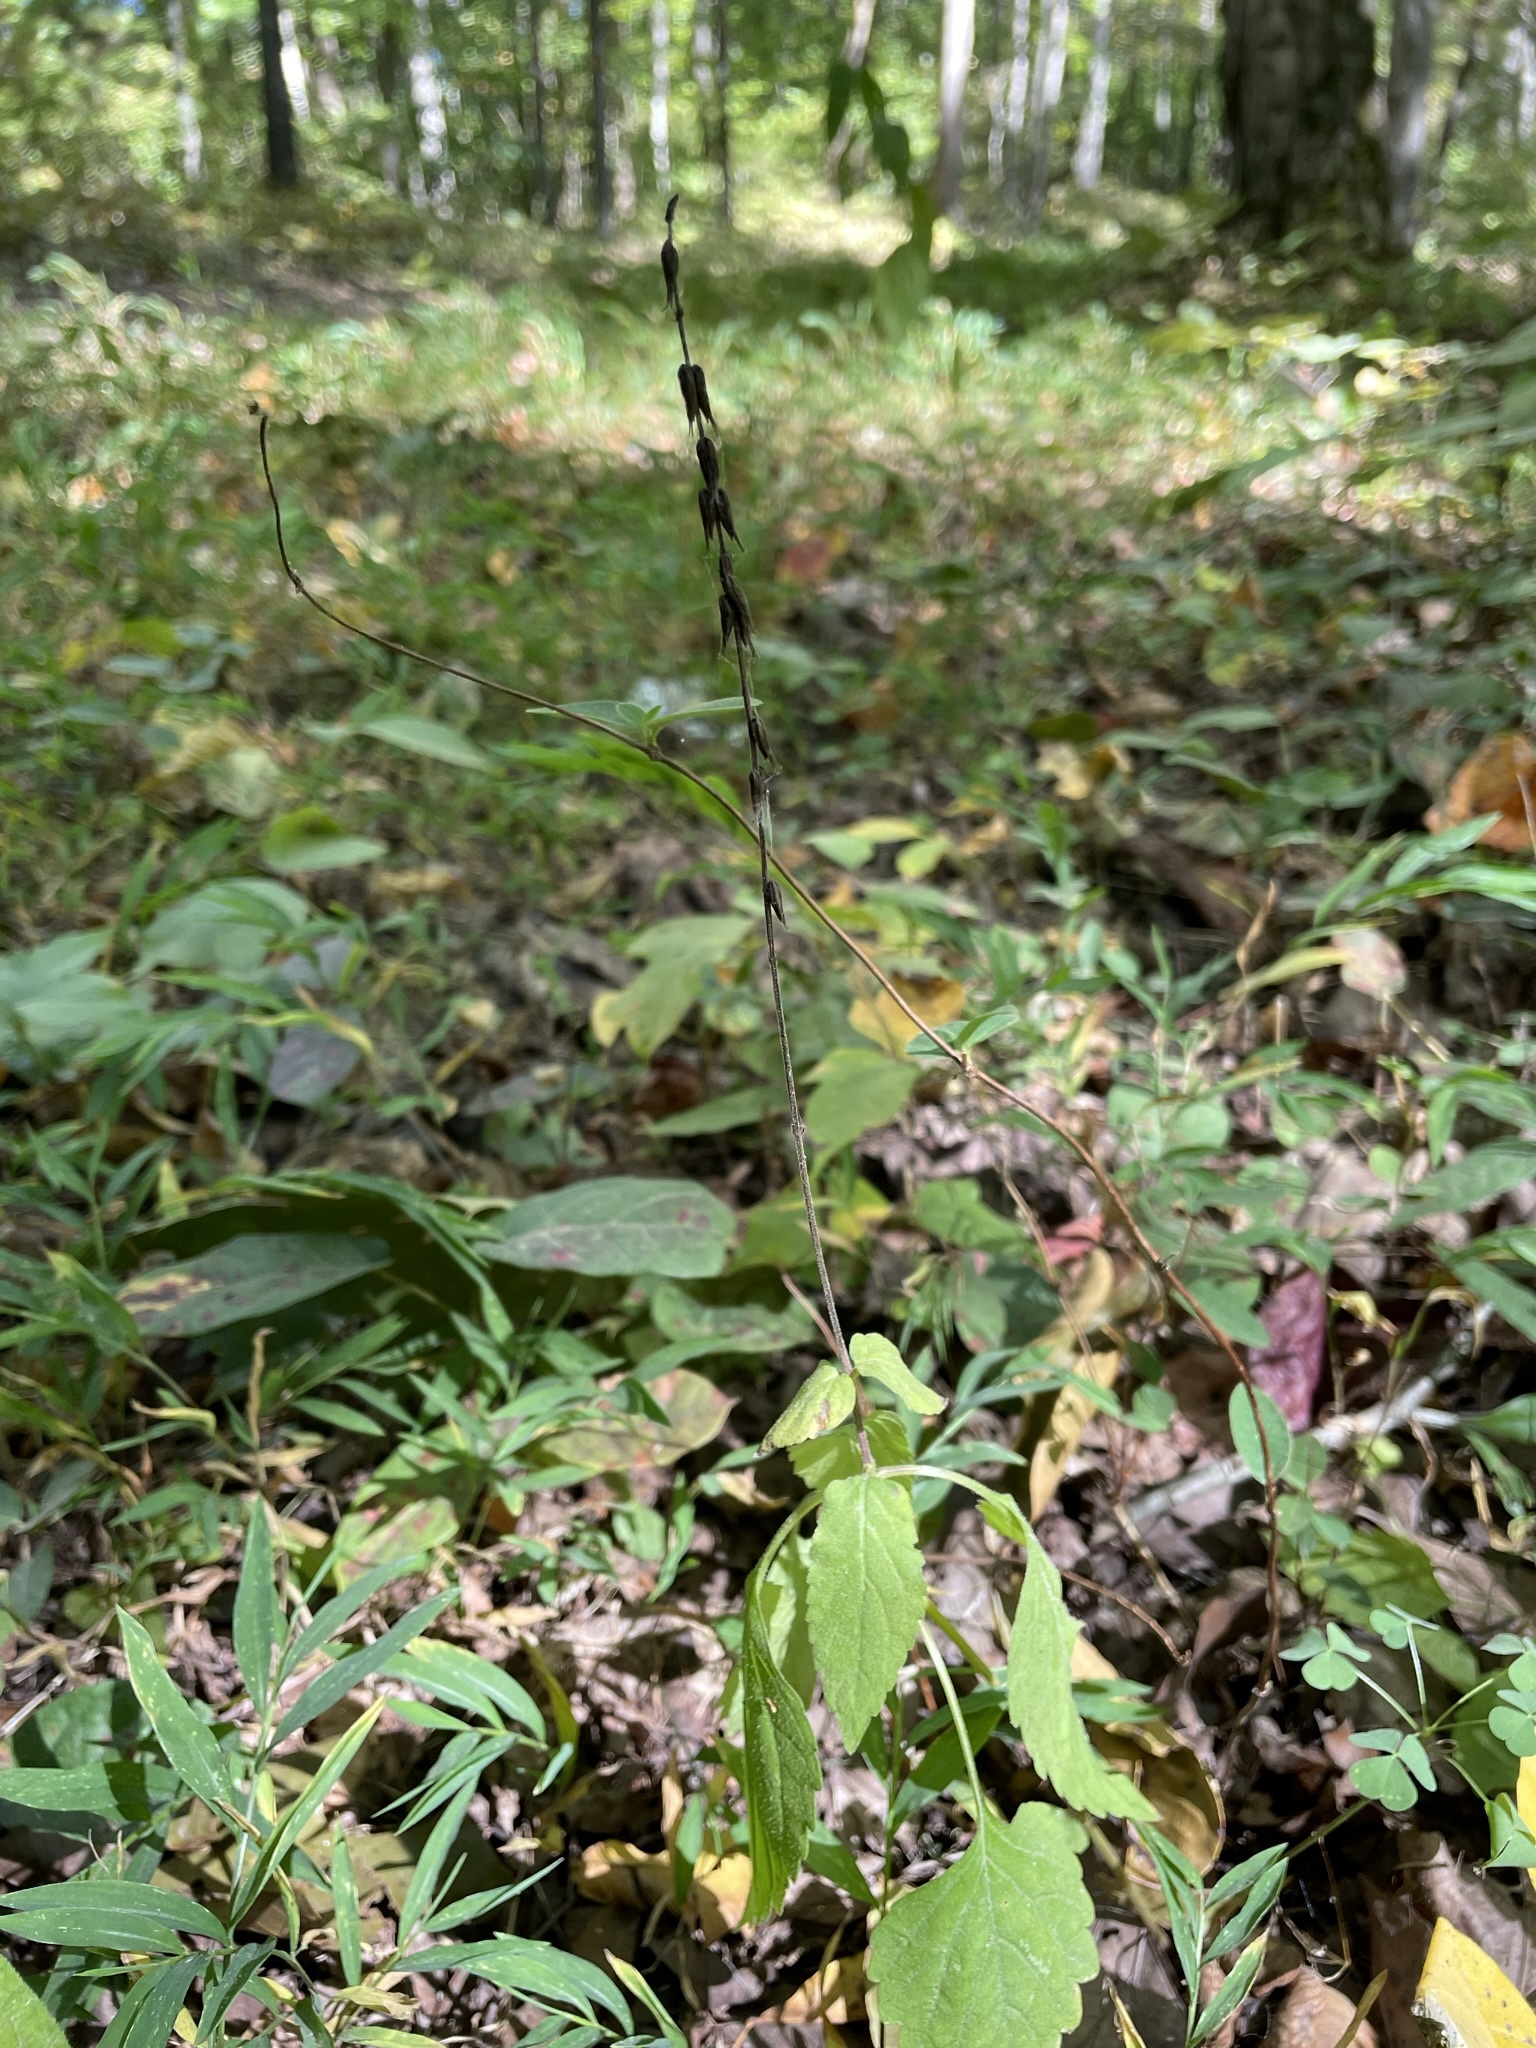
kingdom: Plantae
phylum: Tracheophyta
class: Magnoliopsida
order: Lamiales
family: Phrymaceae
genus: Phryma
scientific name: Phryma leptostachya
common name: American lopseed
